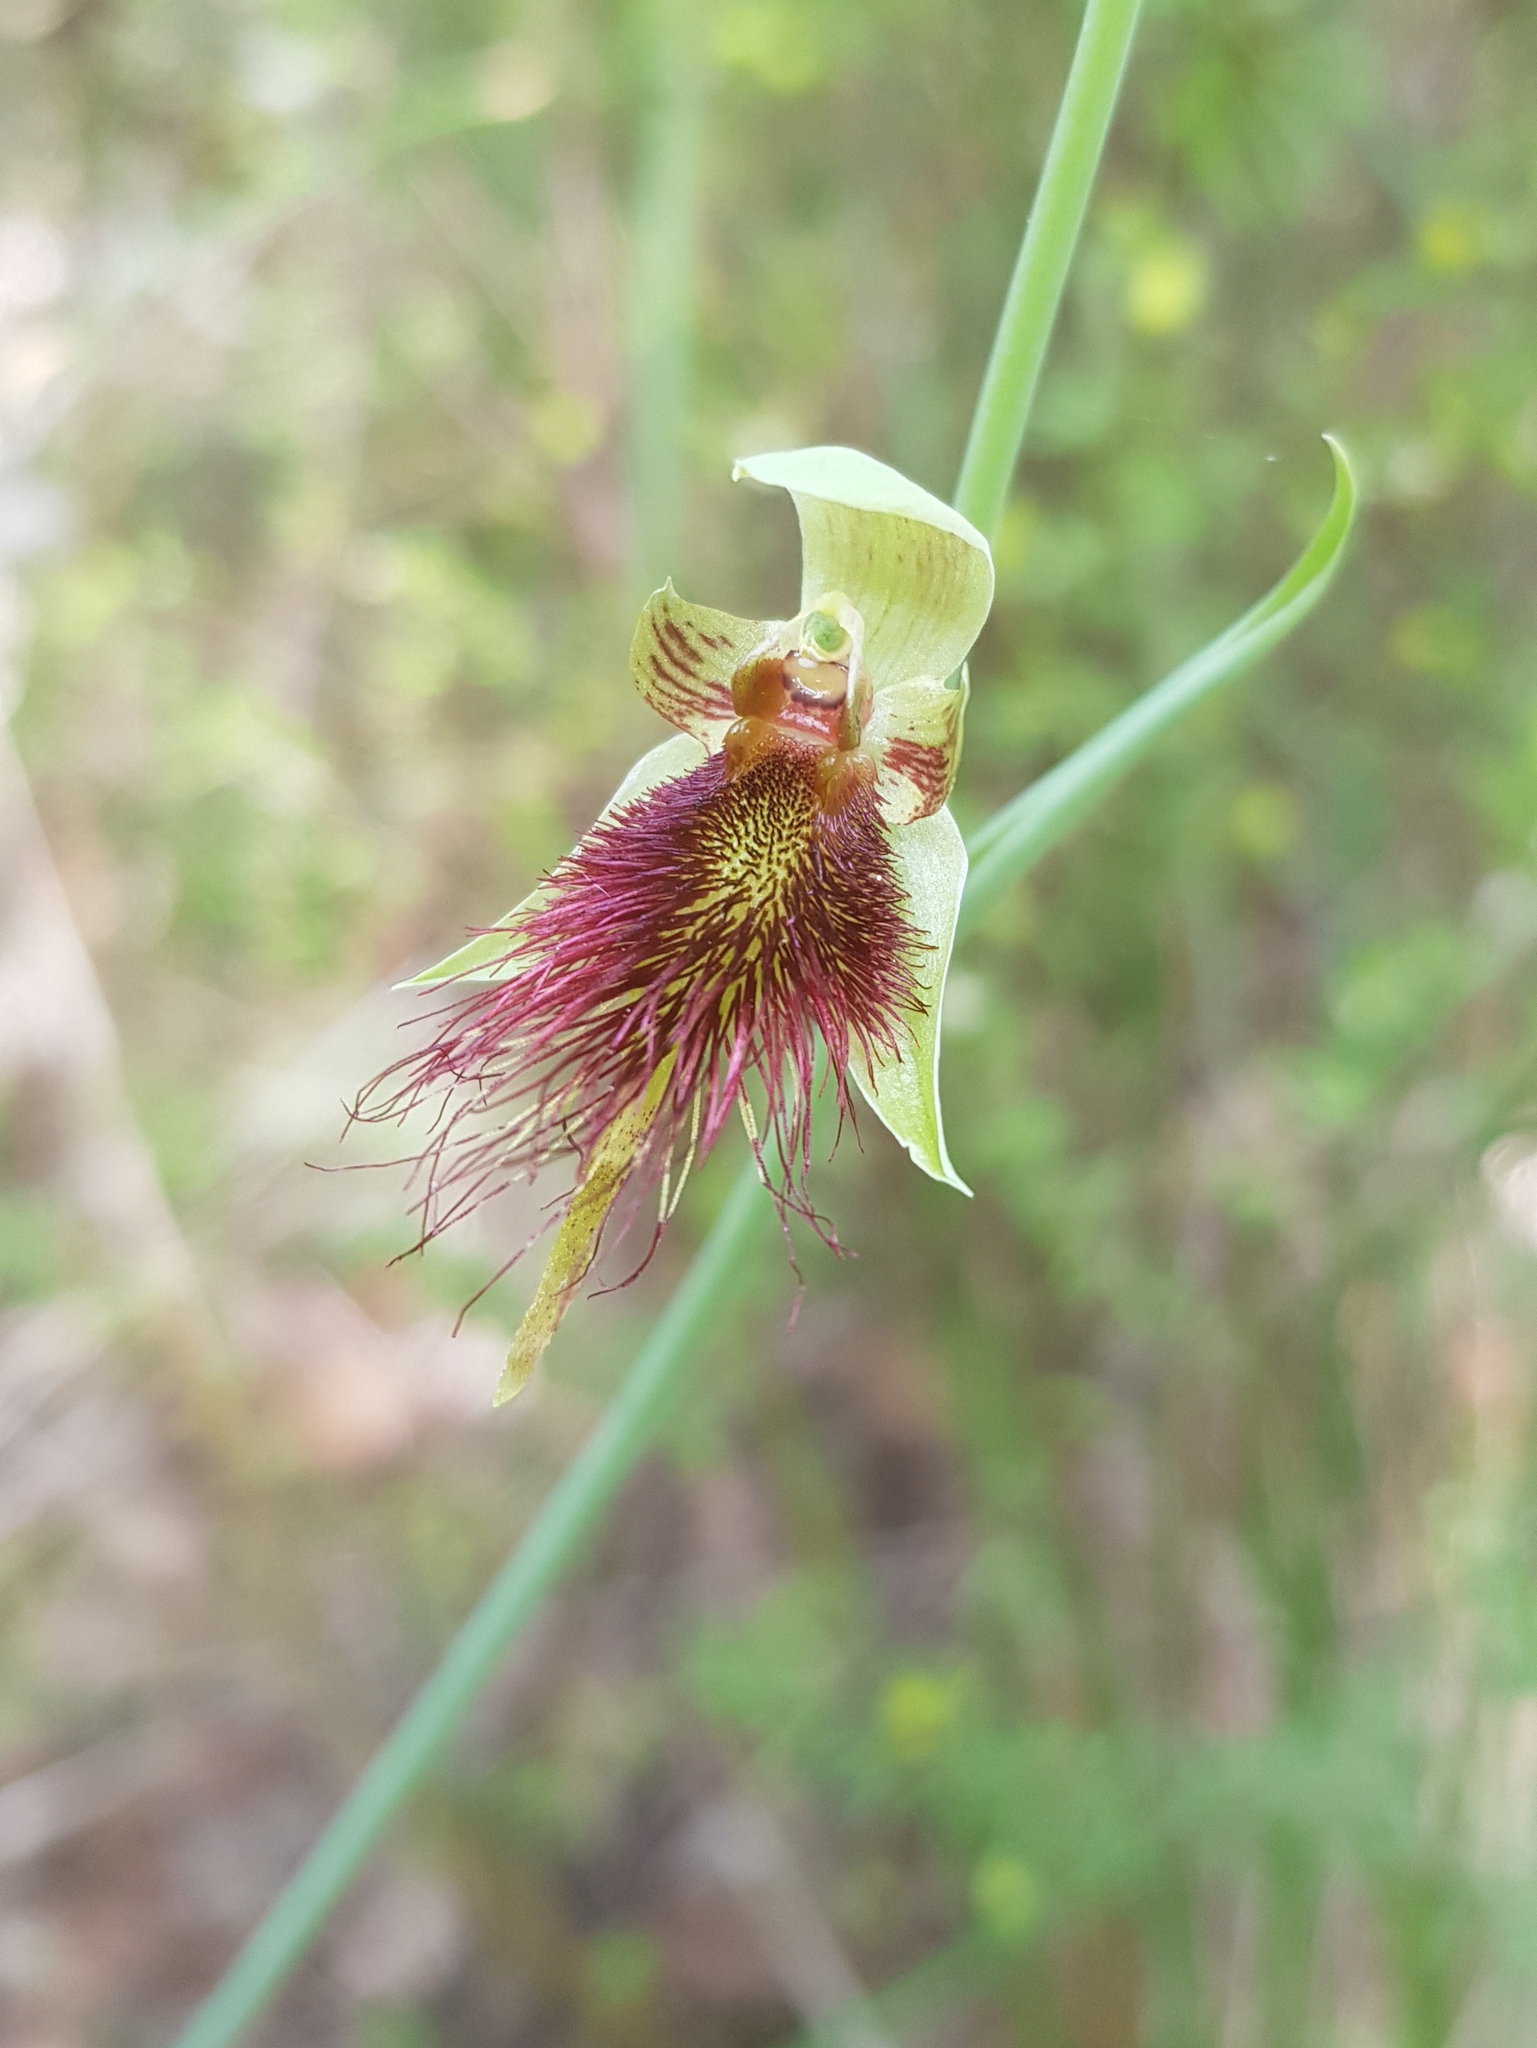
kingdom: Plantae
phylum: Tracheophyta
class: Liliopsida
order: Asparagales
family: Orchidaceae
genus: Calochilus
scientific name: Calochilus paludosus
